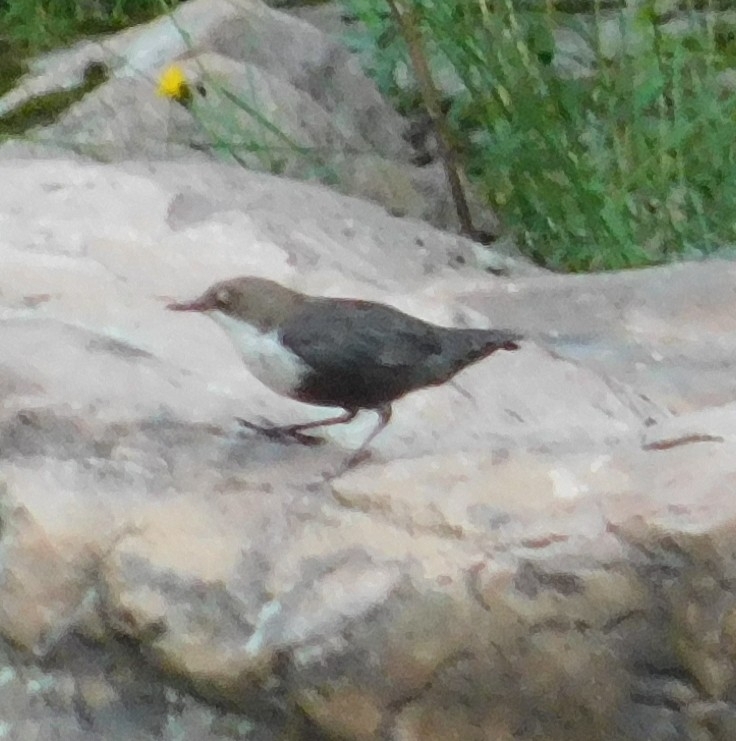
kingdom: Animalia
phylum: Chordata
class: Aves
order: Passeriformes
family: Cinclidae
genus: Cinclus
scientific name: Cinclus cinclus
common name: White-throated dipper
